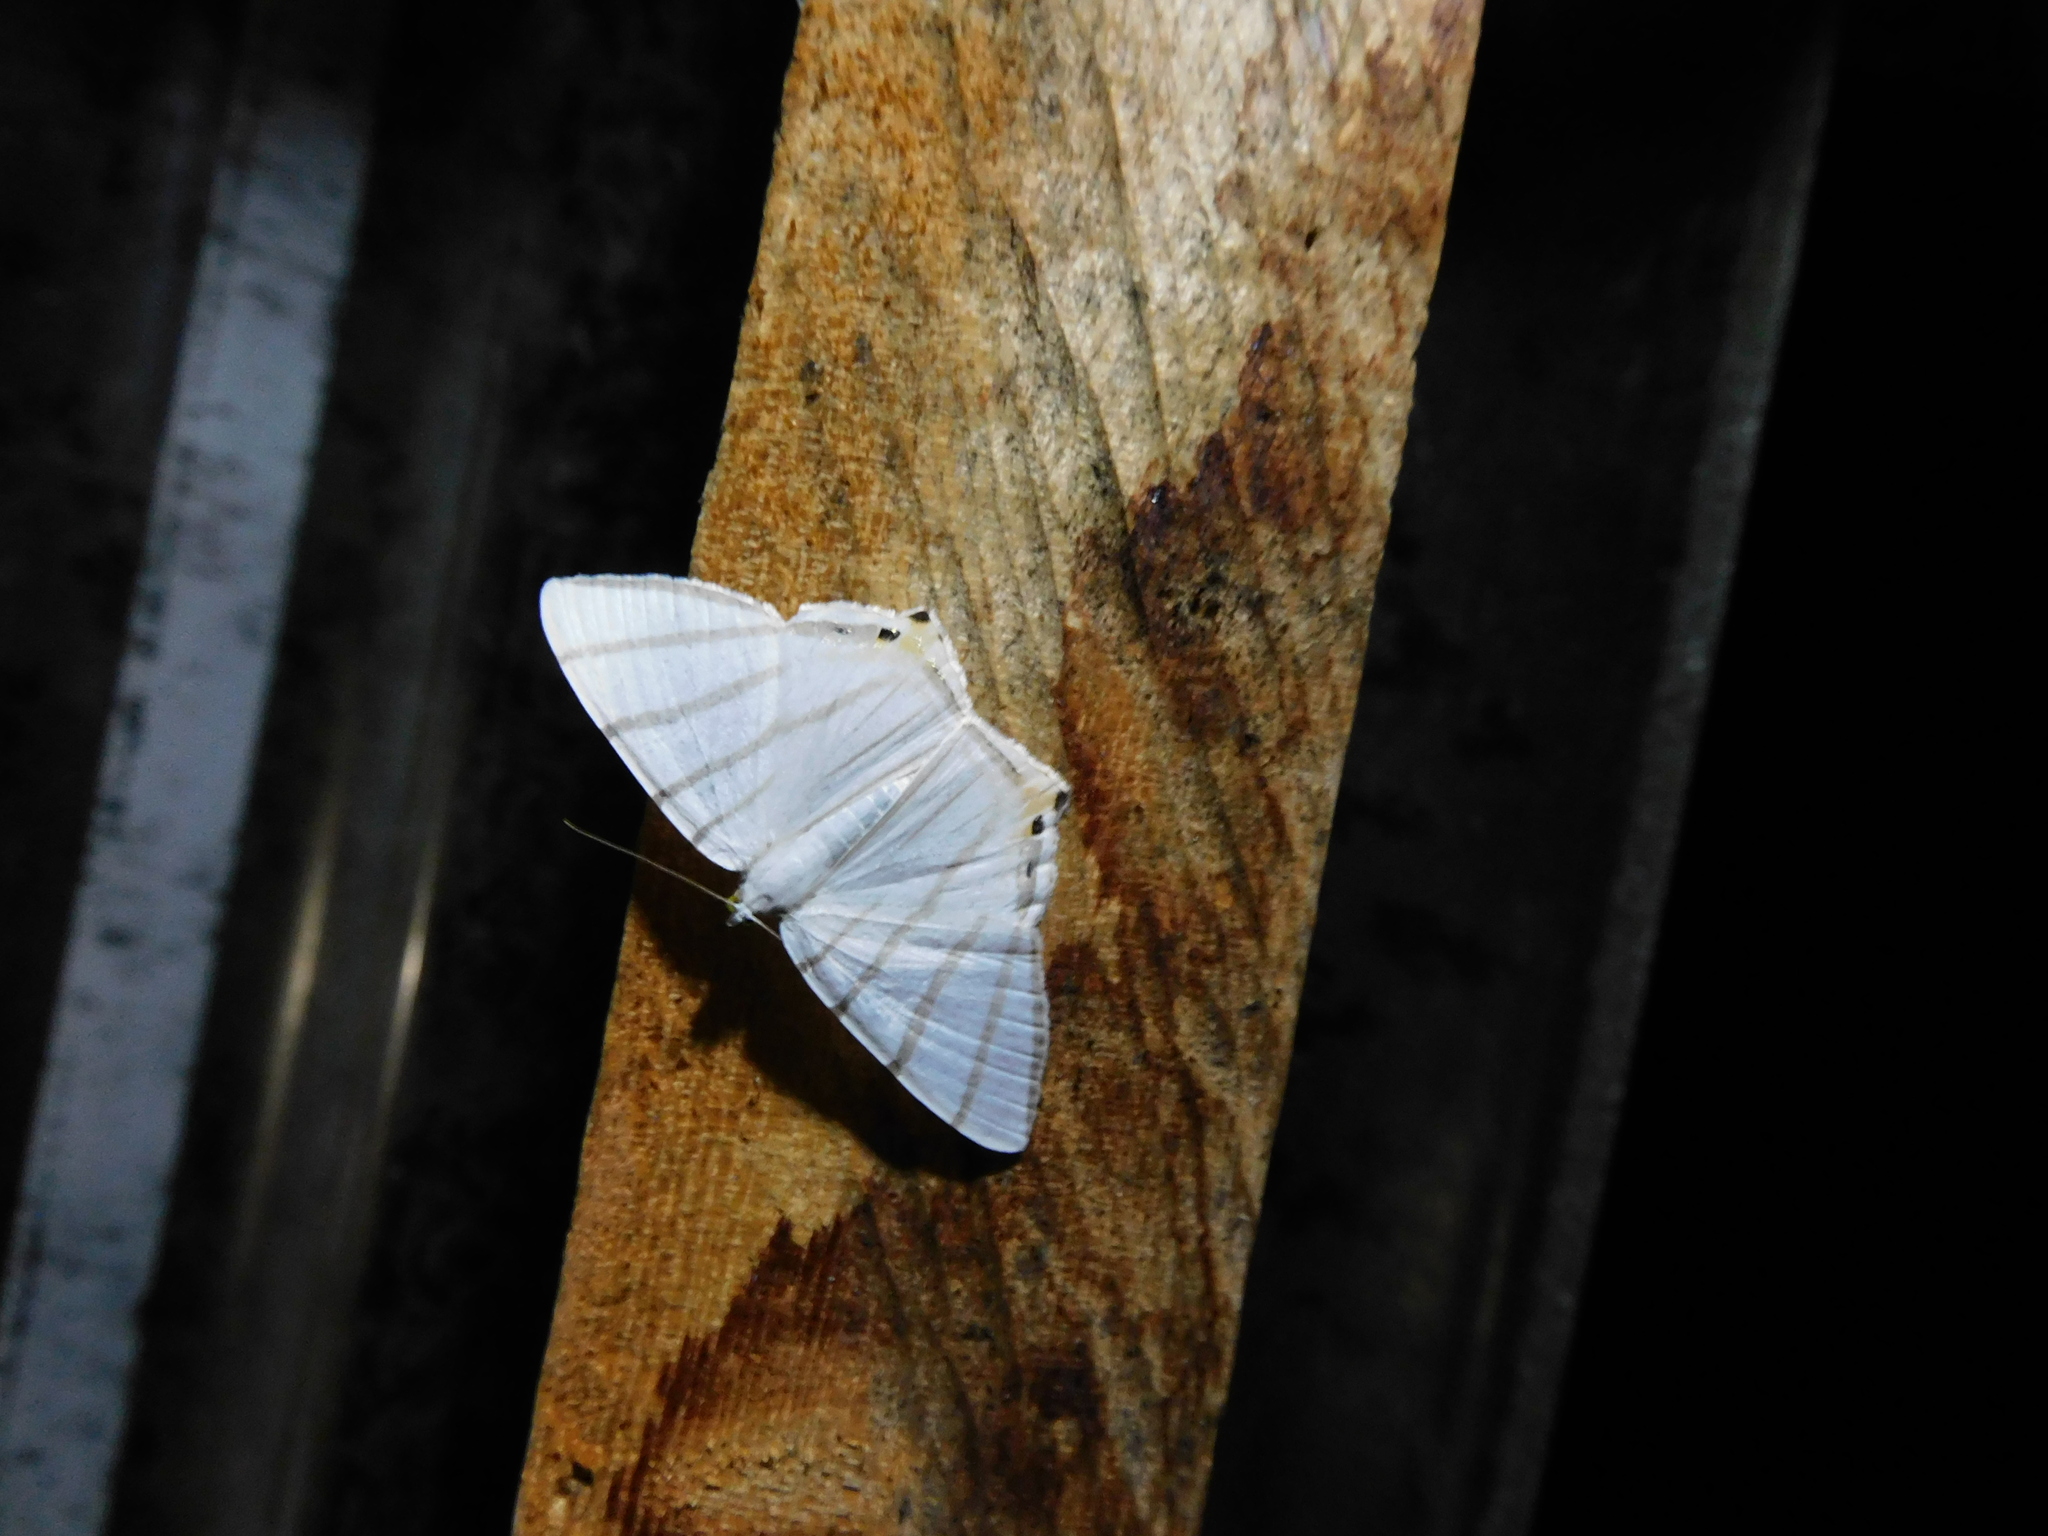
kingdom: Animalia
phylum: Arthropoda
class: Insecta
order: Lepidoptera
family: Geometridae
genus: Opisthoxia
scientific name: Opisthoxia metargyria
